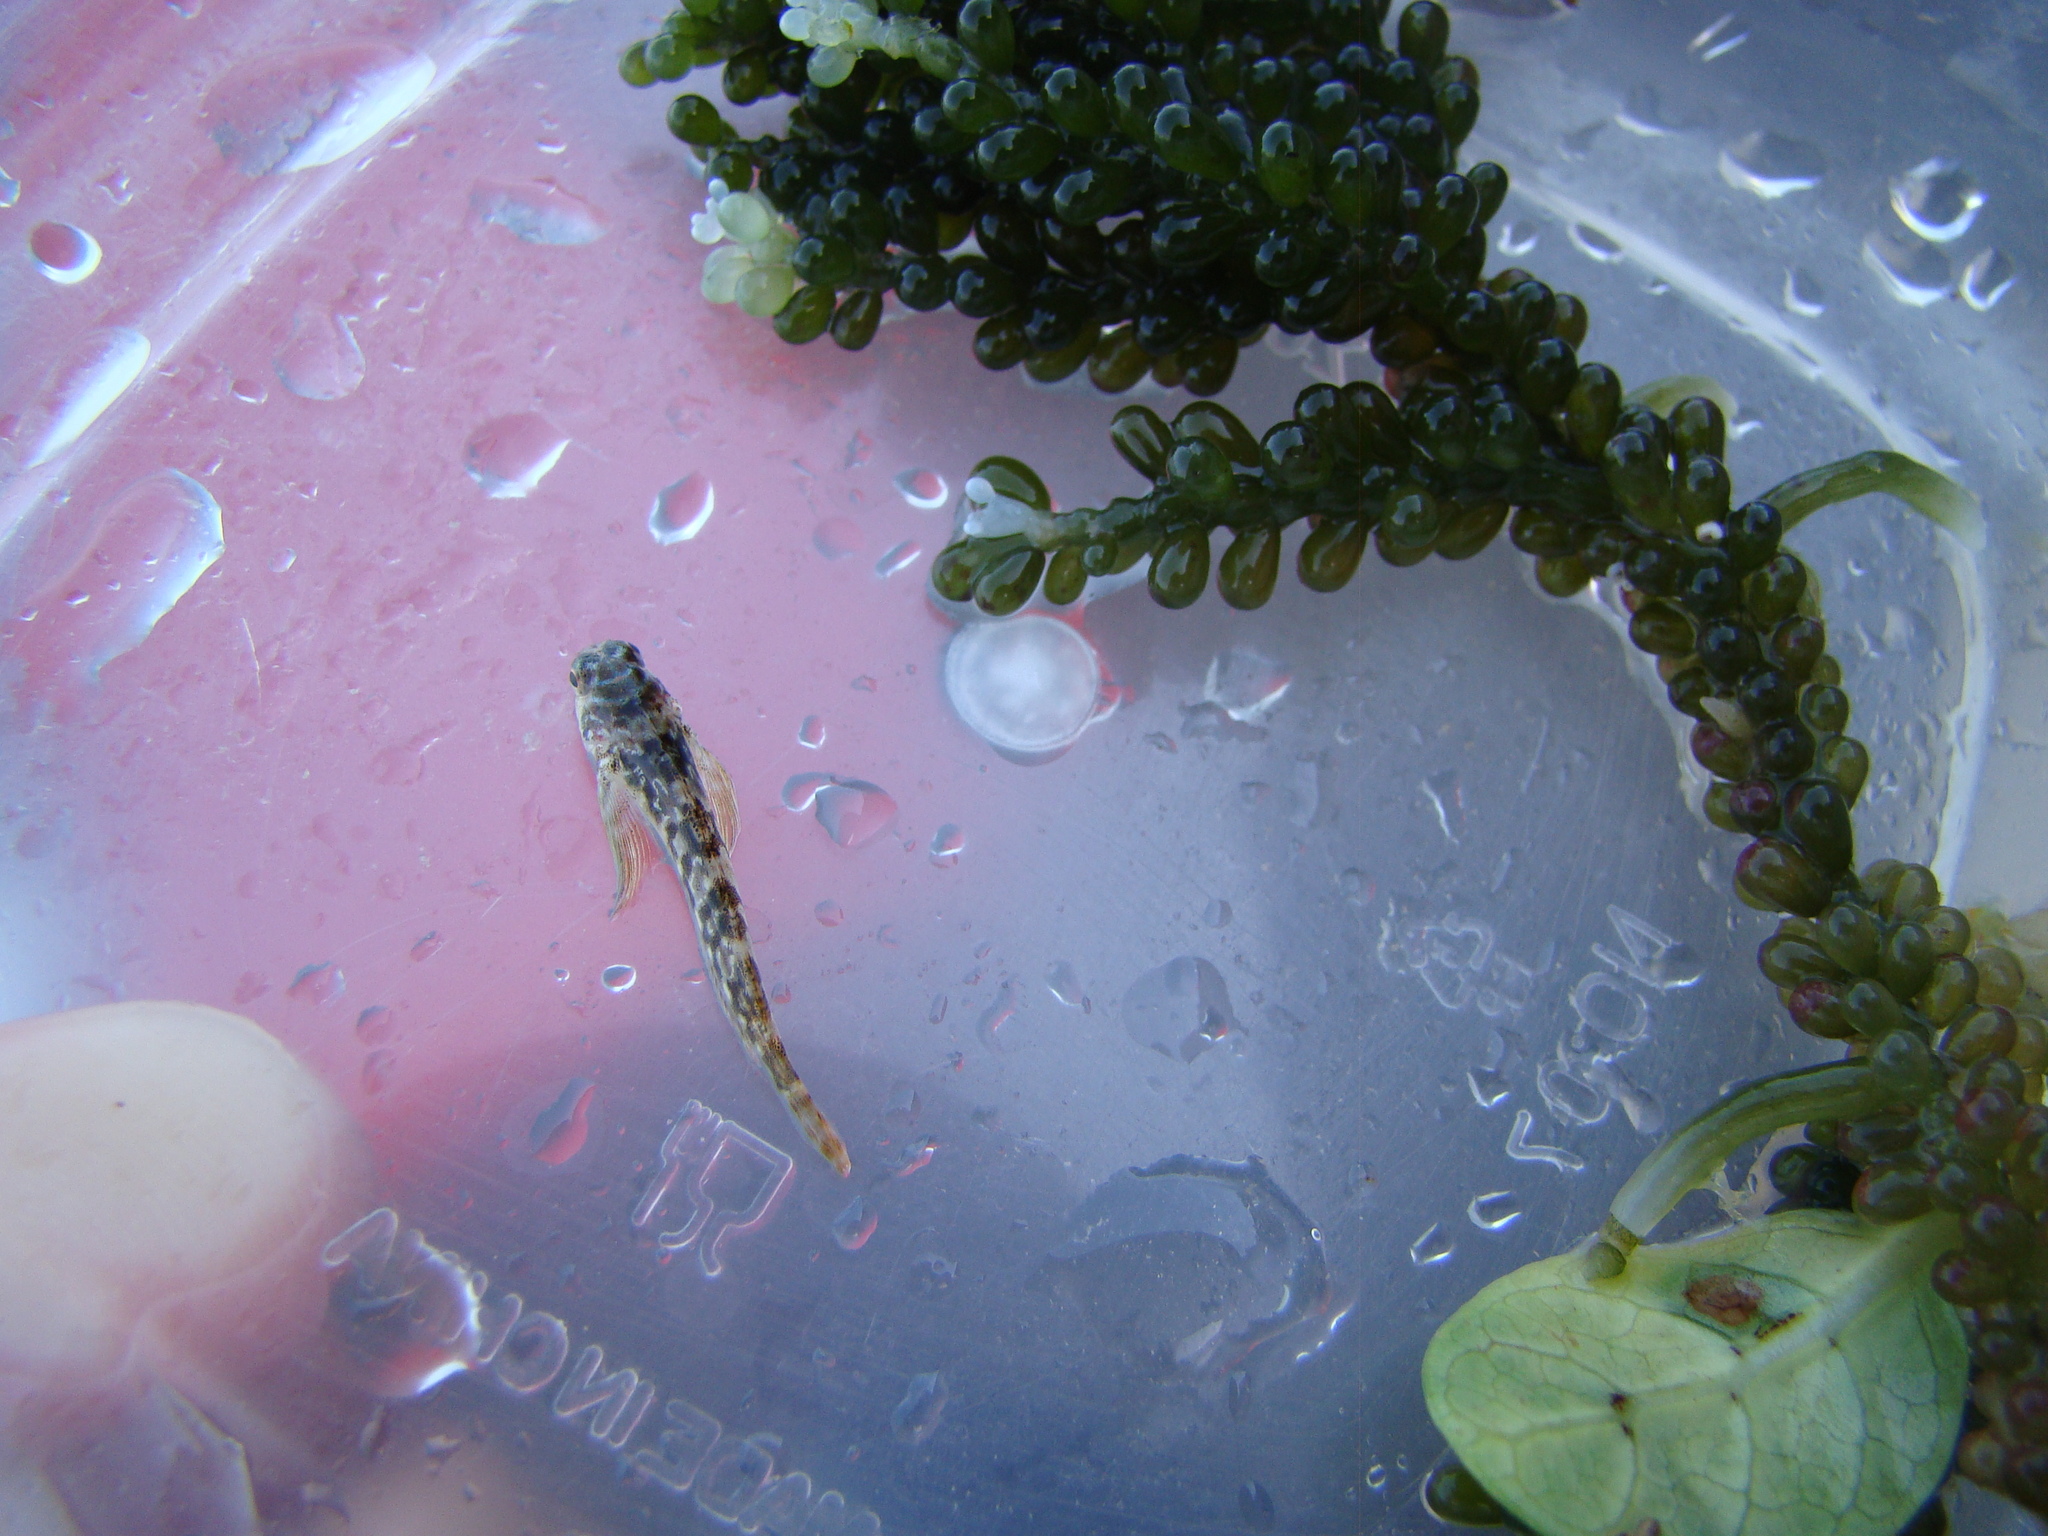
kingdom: Animalia
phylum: Chordata
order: Perciformes
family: Tripterygiidae
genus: Bellapiscis
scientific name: Bellapiscis lesleyae
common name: Mottled twister
